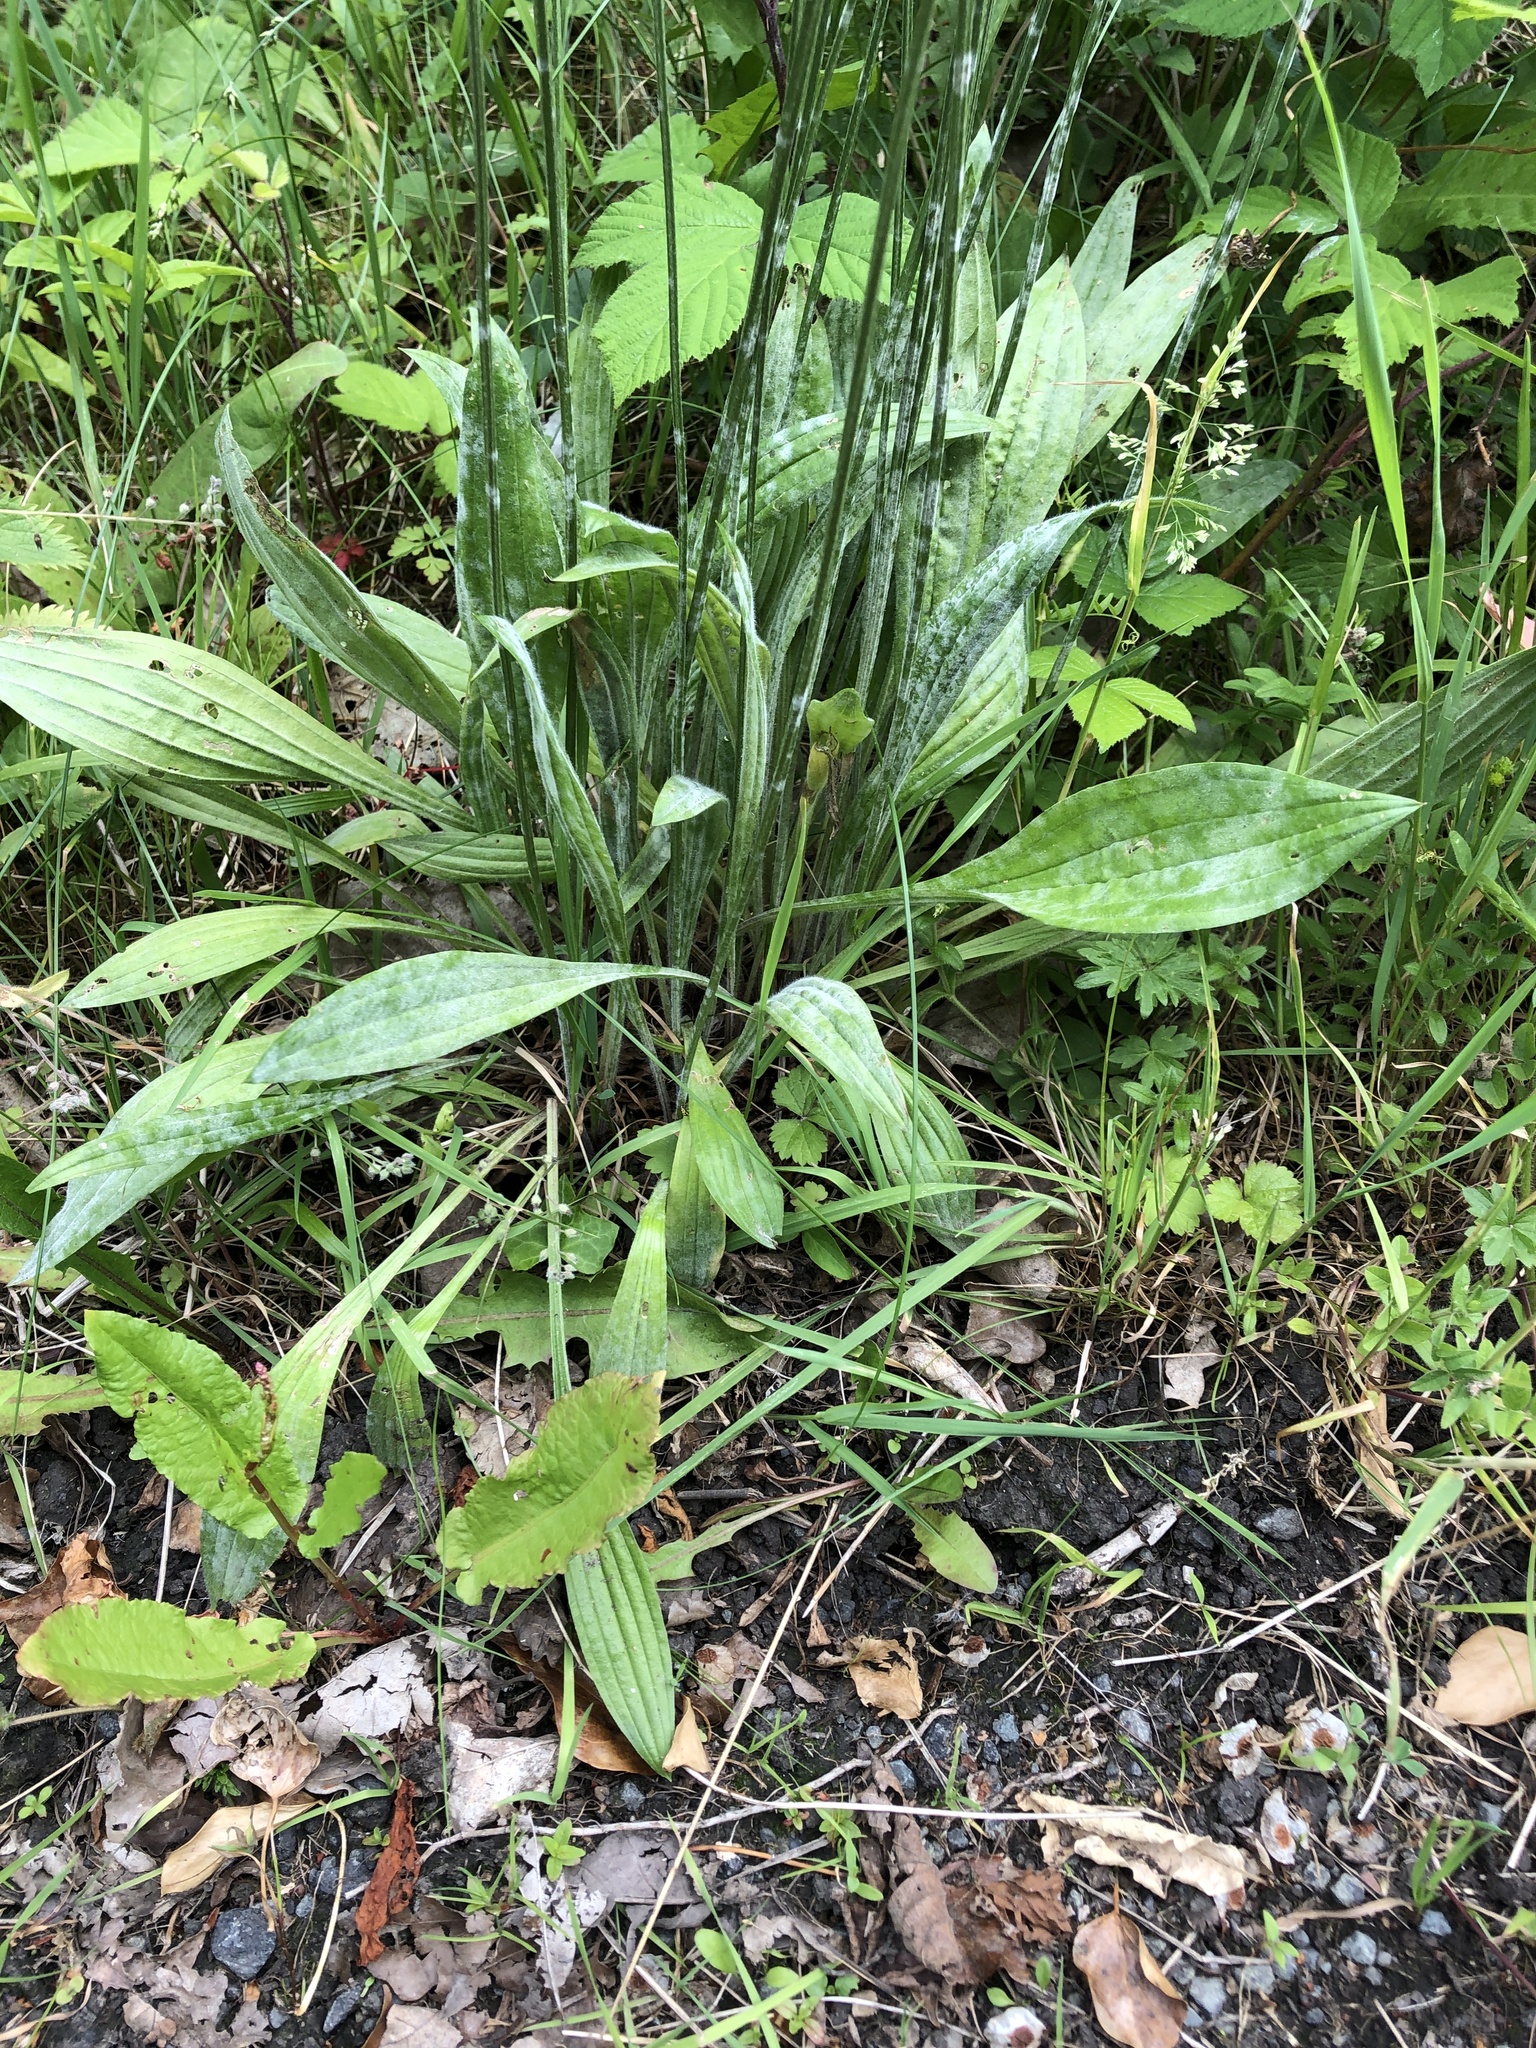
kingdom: Plantae
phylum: Tracheophyta
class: Magnoliopsida
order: Lamiales
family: Plantaginaceae
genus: Plantago
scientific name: Plantago lanceolata
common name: Ribwort plantain
